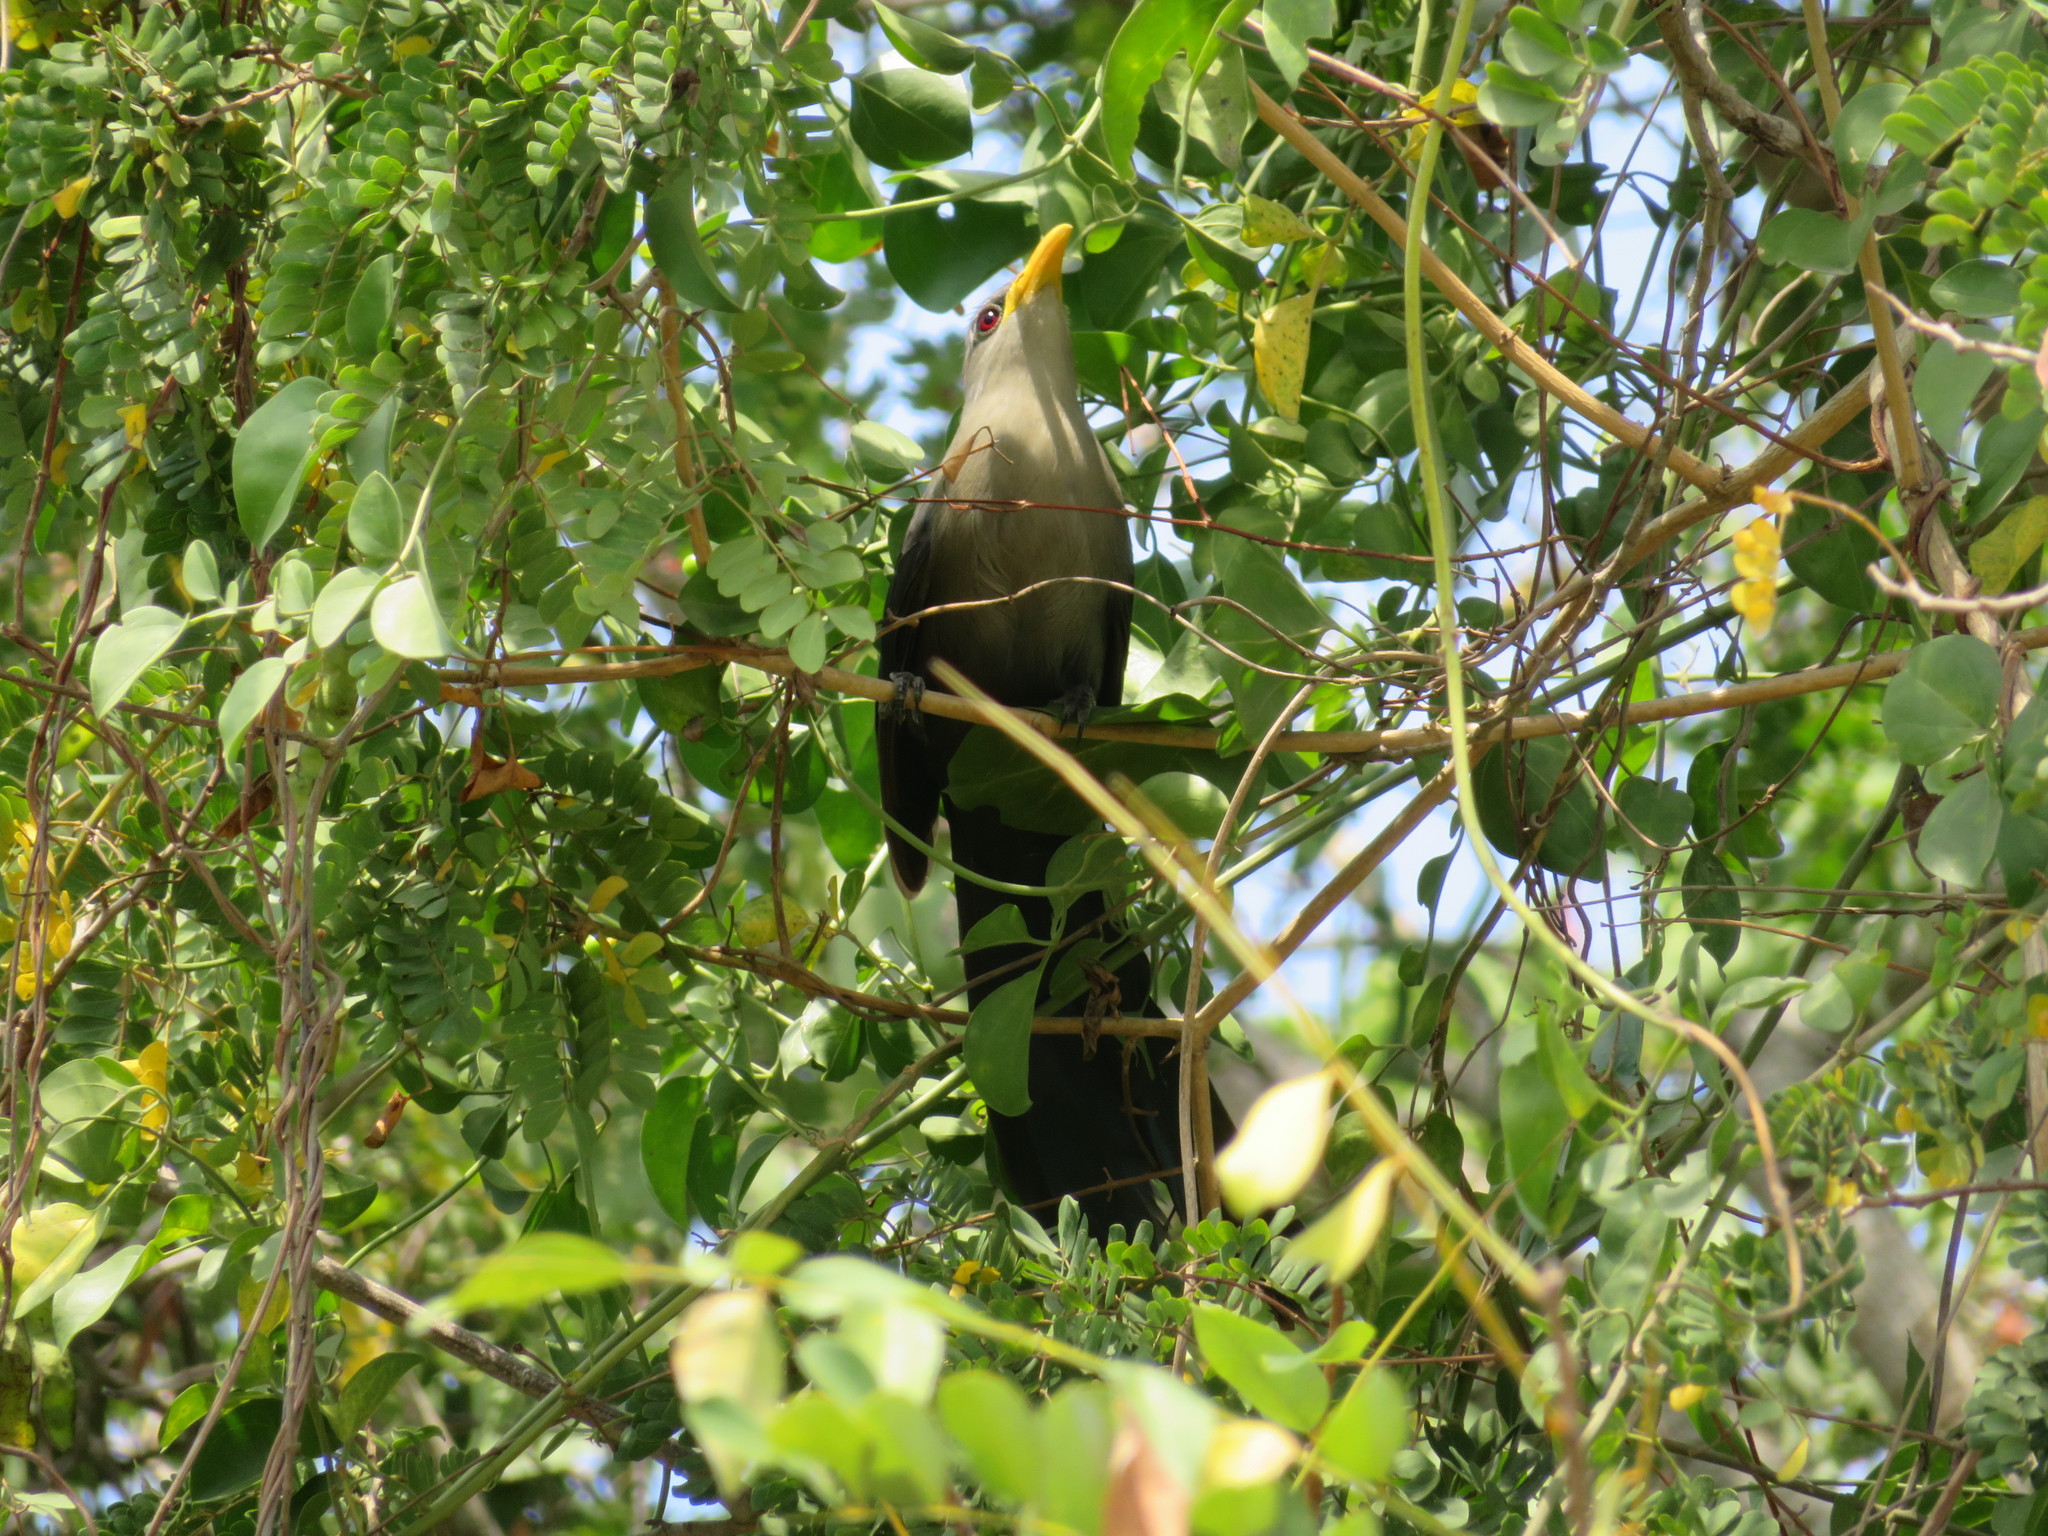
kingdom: Animalia
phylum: Chordata
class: Aves
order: Cuculiformes
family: Cuculidae
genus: Ceuthmochares
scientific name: Ceuthmochares australis
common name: Green malkoha
